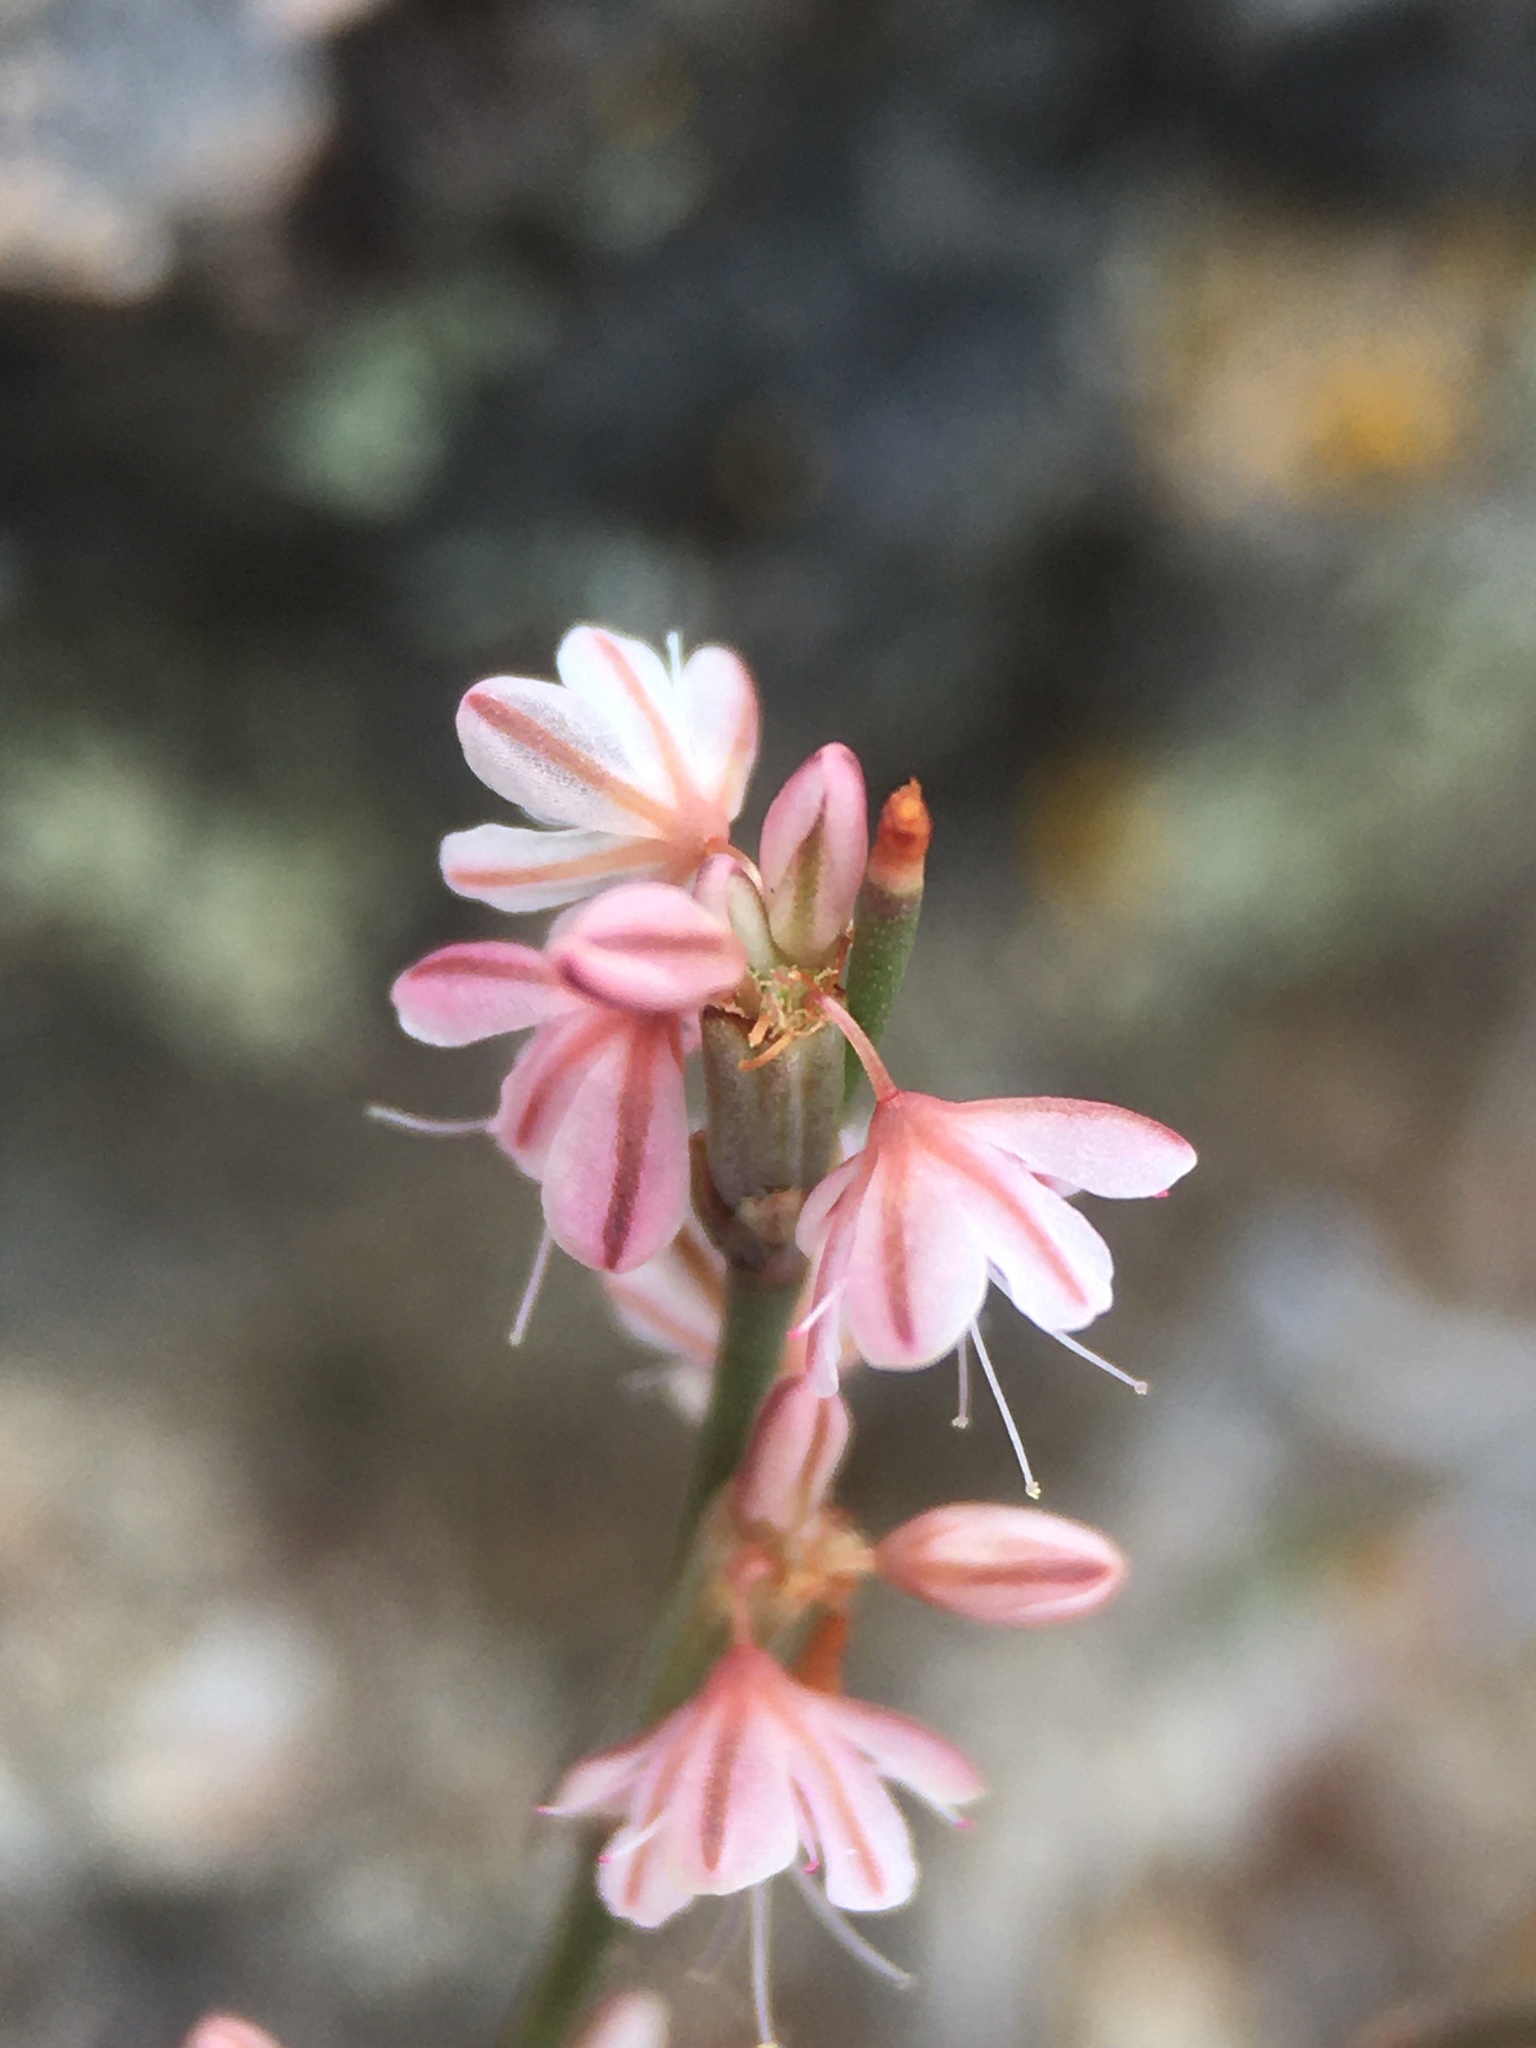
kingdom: Plantae
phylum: Tracheophyta
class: Magnoliopsida
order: Caryophyllales
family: Polygonaceae
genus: Eriogonum
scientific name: Eriogonum vimineum
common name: Wicker buckwheat
